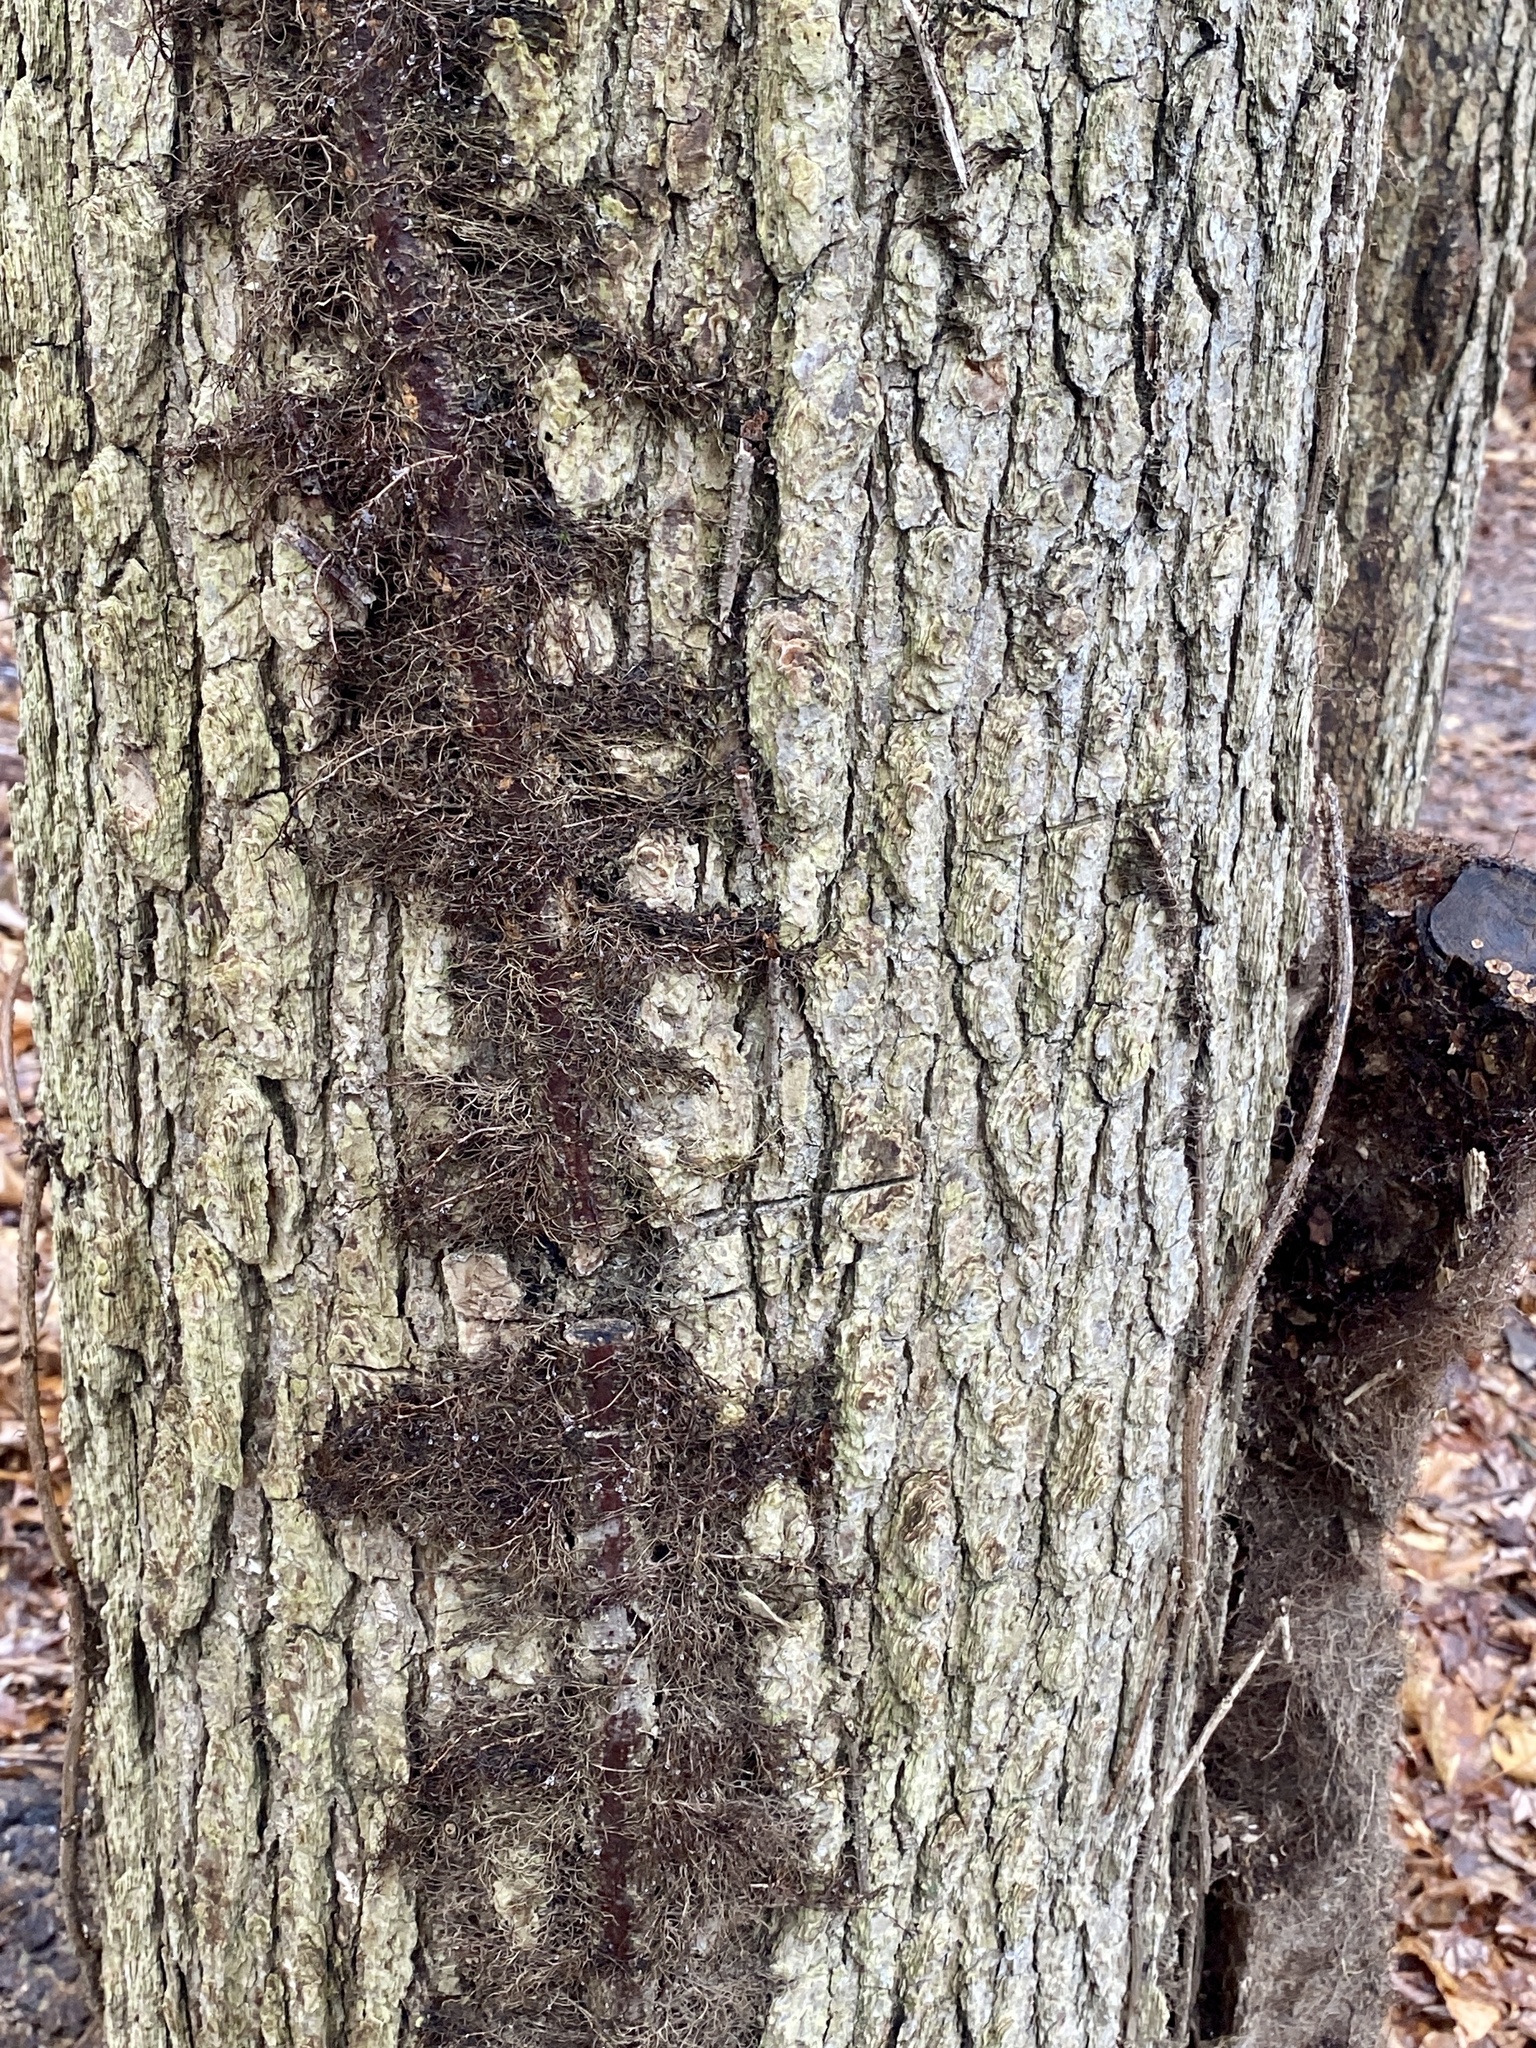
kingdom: Plantae
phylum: Tracheophyta
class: Magnoliopsida
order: Sapindales
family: Anacardiaceae
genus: Toxicodendron
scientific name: Toxicodendron radicans
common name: Poison ivy
